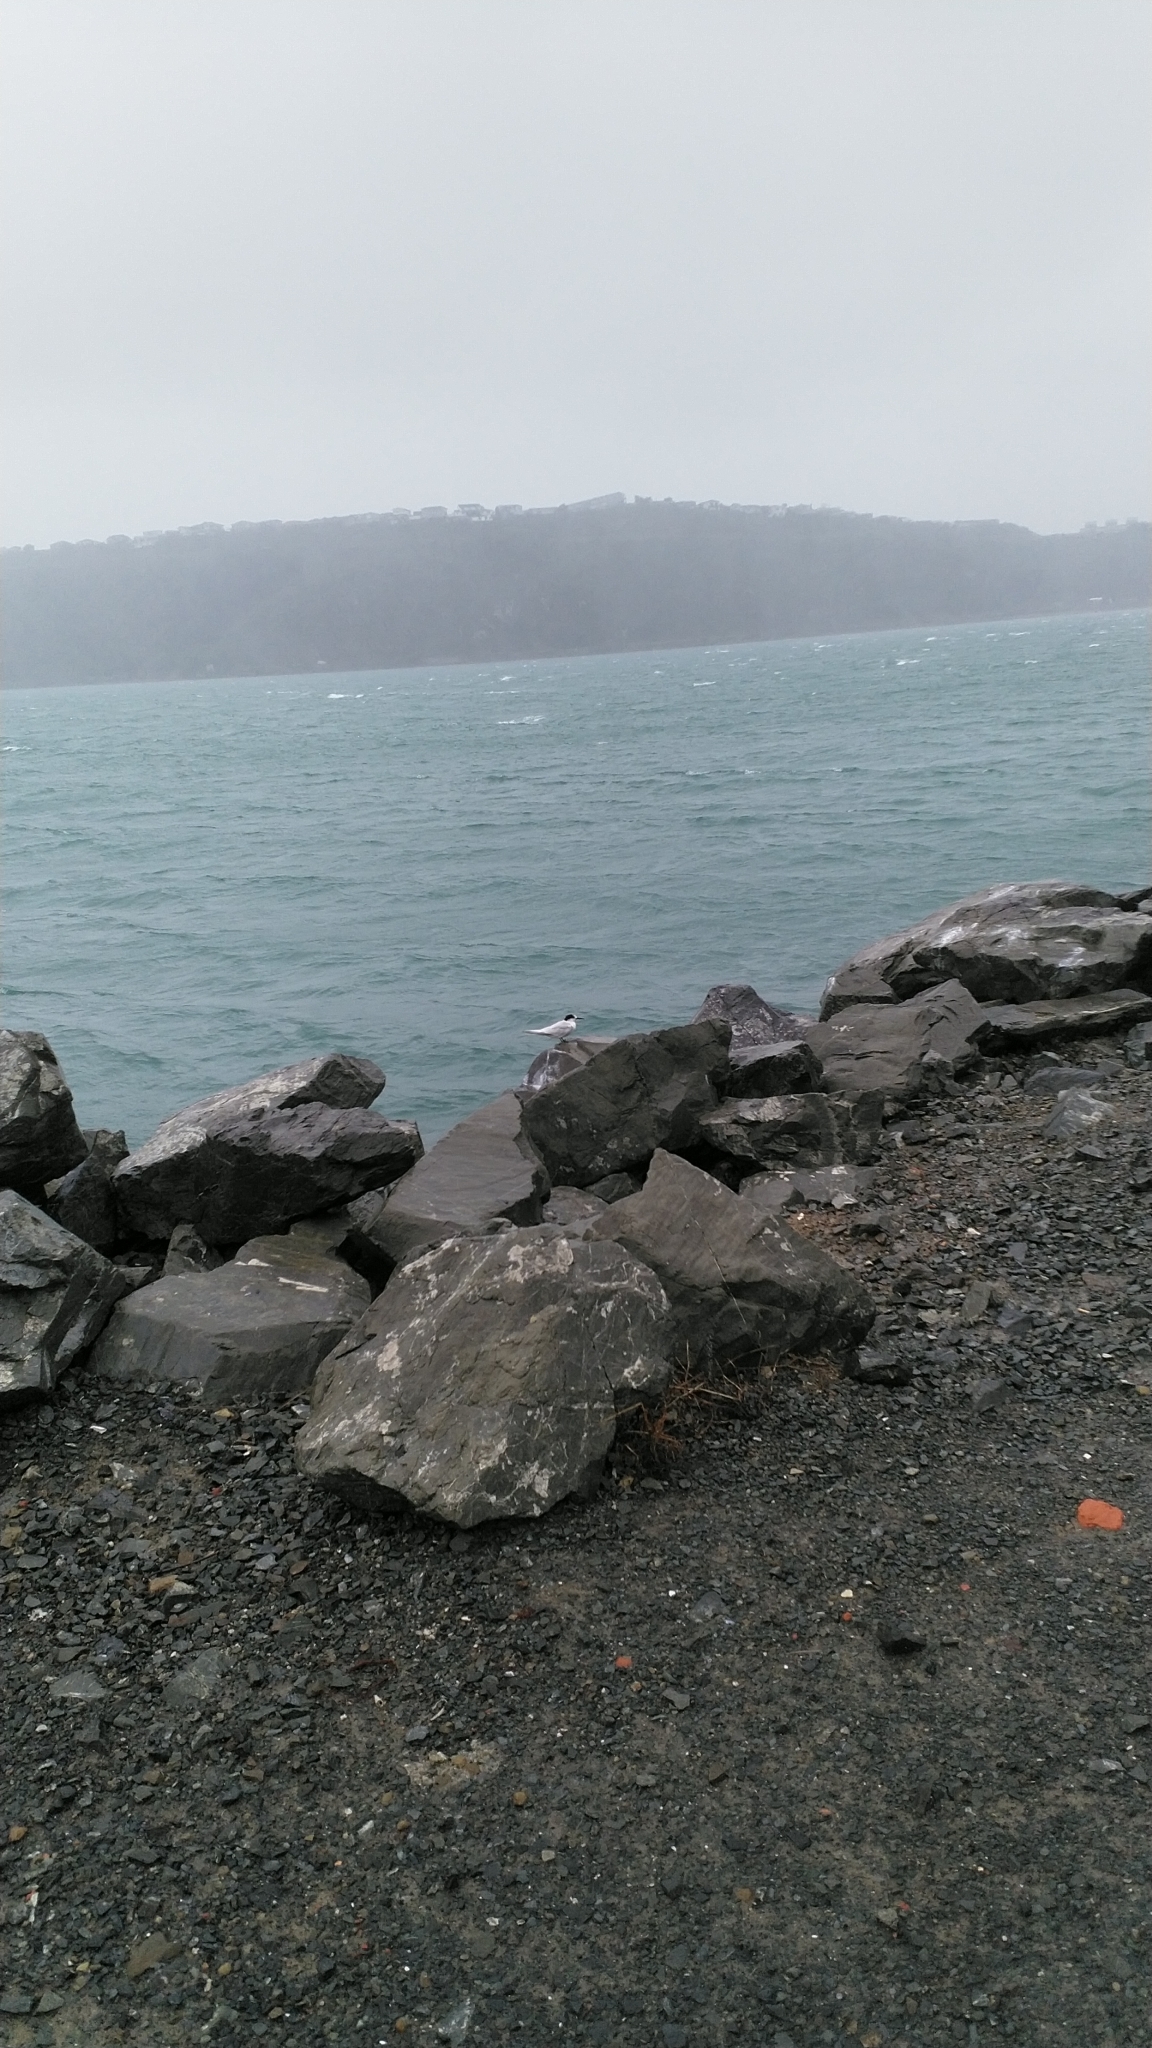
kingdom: Animalia
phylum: Chordata
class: Aves
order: Charadriiformes
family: Laridae
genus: Sterna
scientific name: Sterna striata
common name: White-fronted tern
